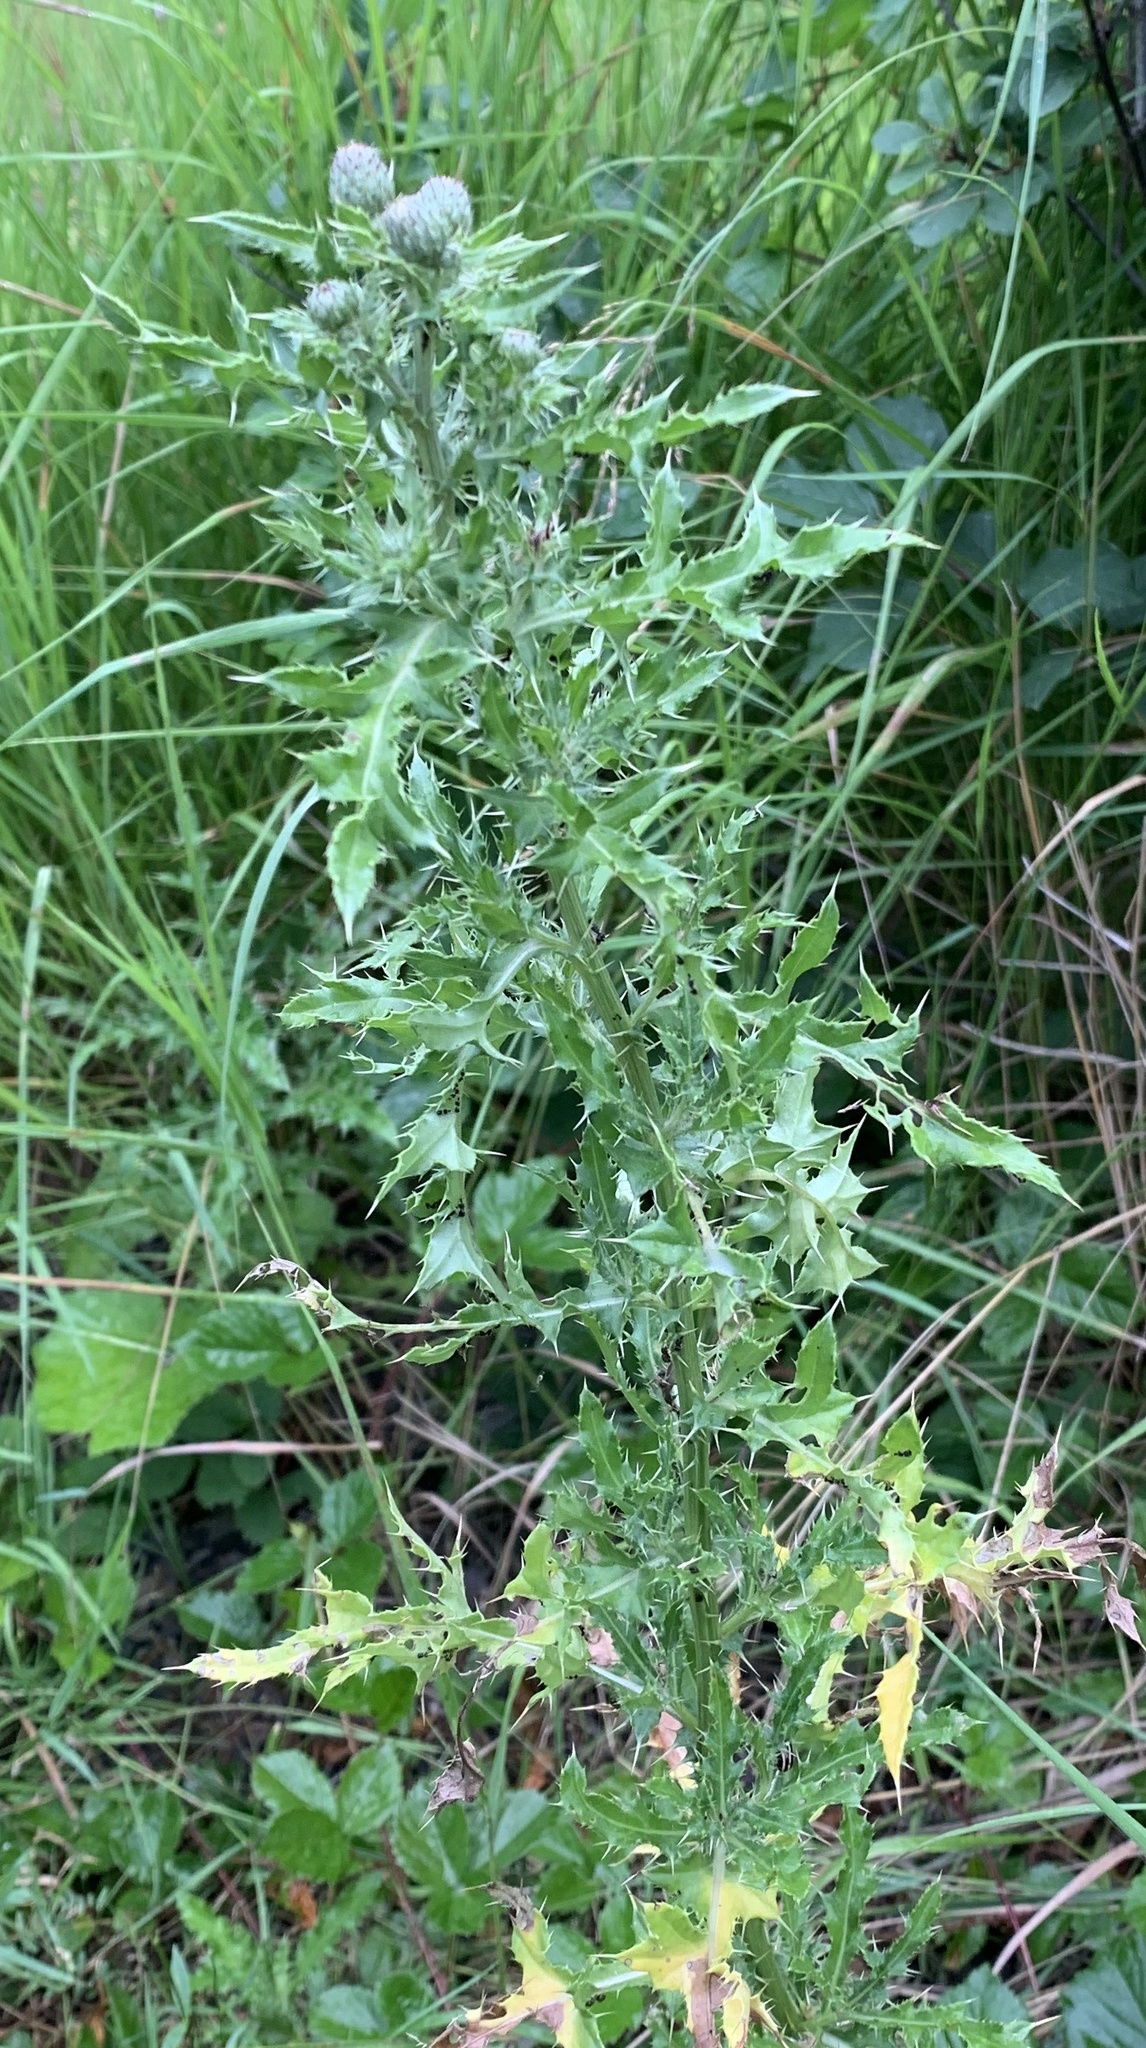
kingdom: Plantae
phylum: Tracheophyta
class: Magnoliopsida
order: Asterales
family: Asteraceae
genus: Cirsium
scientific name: Cirsium arvense
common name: Creeping thistle
